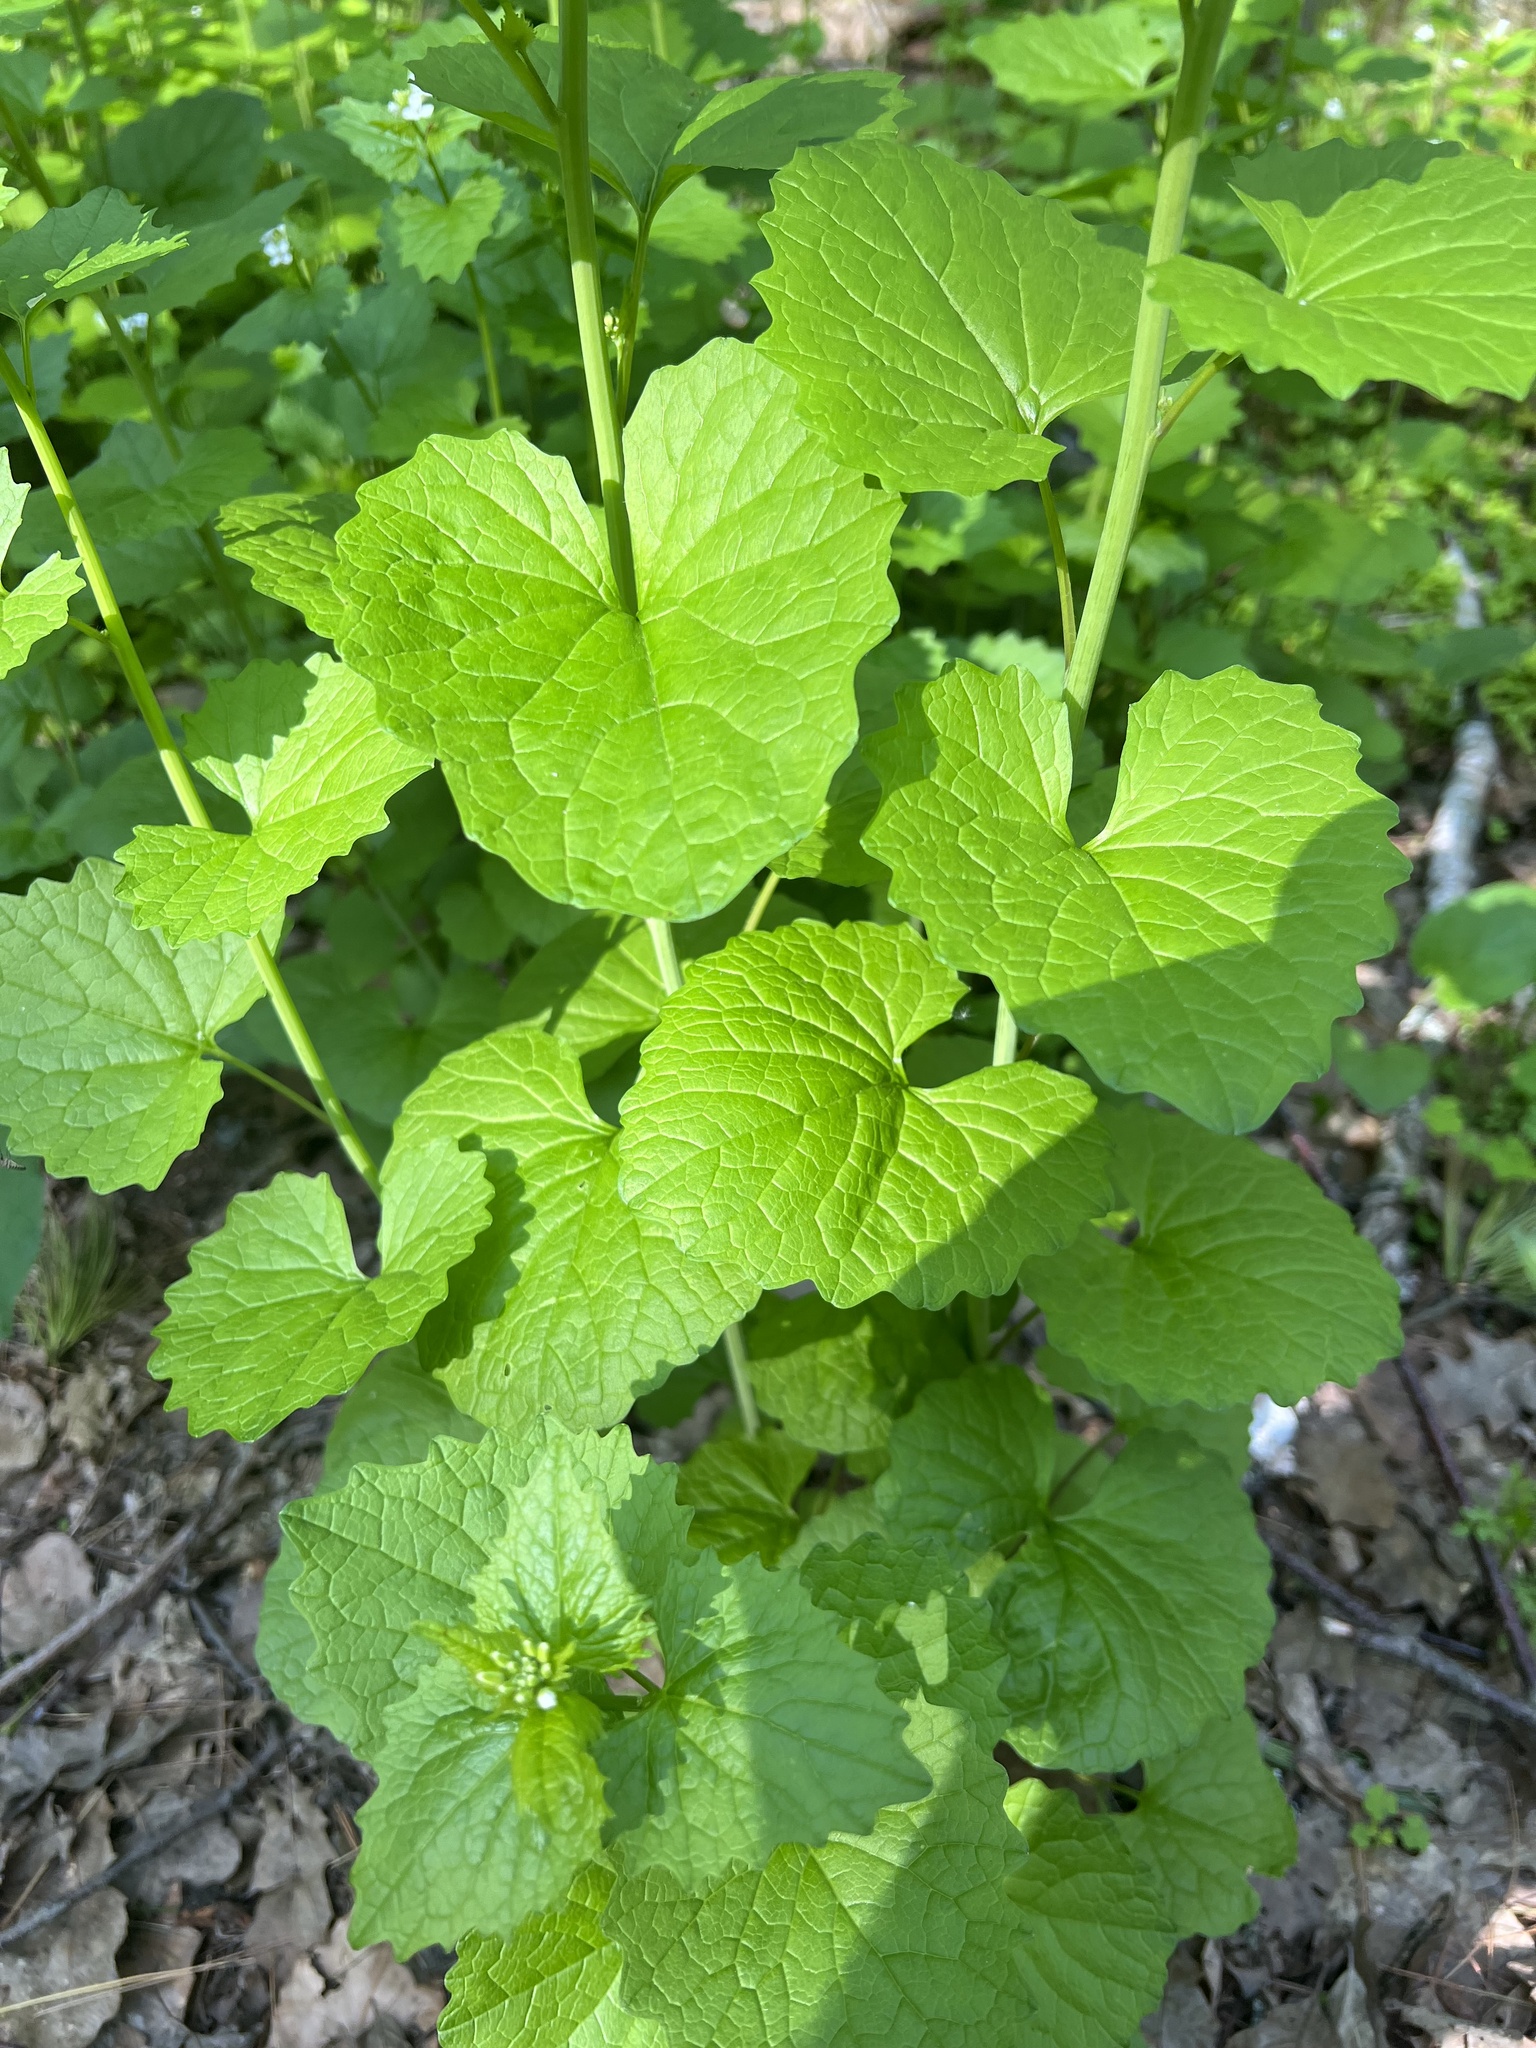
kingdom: Plantae
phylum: Tracheophyta
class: Magnoliopsida
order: Brassicales
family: Brassicaceae
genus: Alliaria
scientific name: Alliaria petiolata
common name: Garlic mustard
